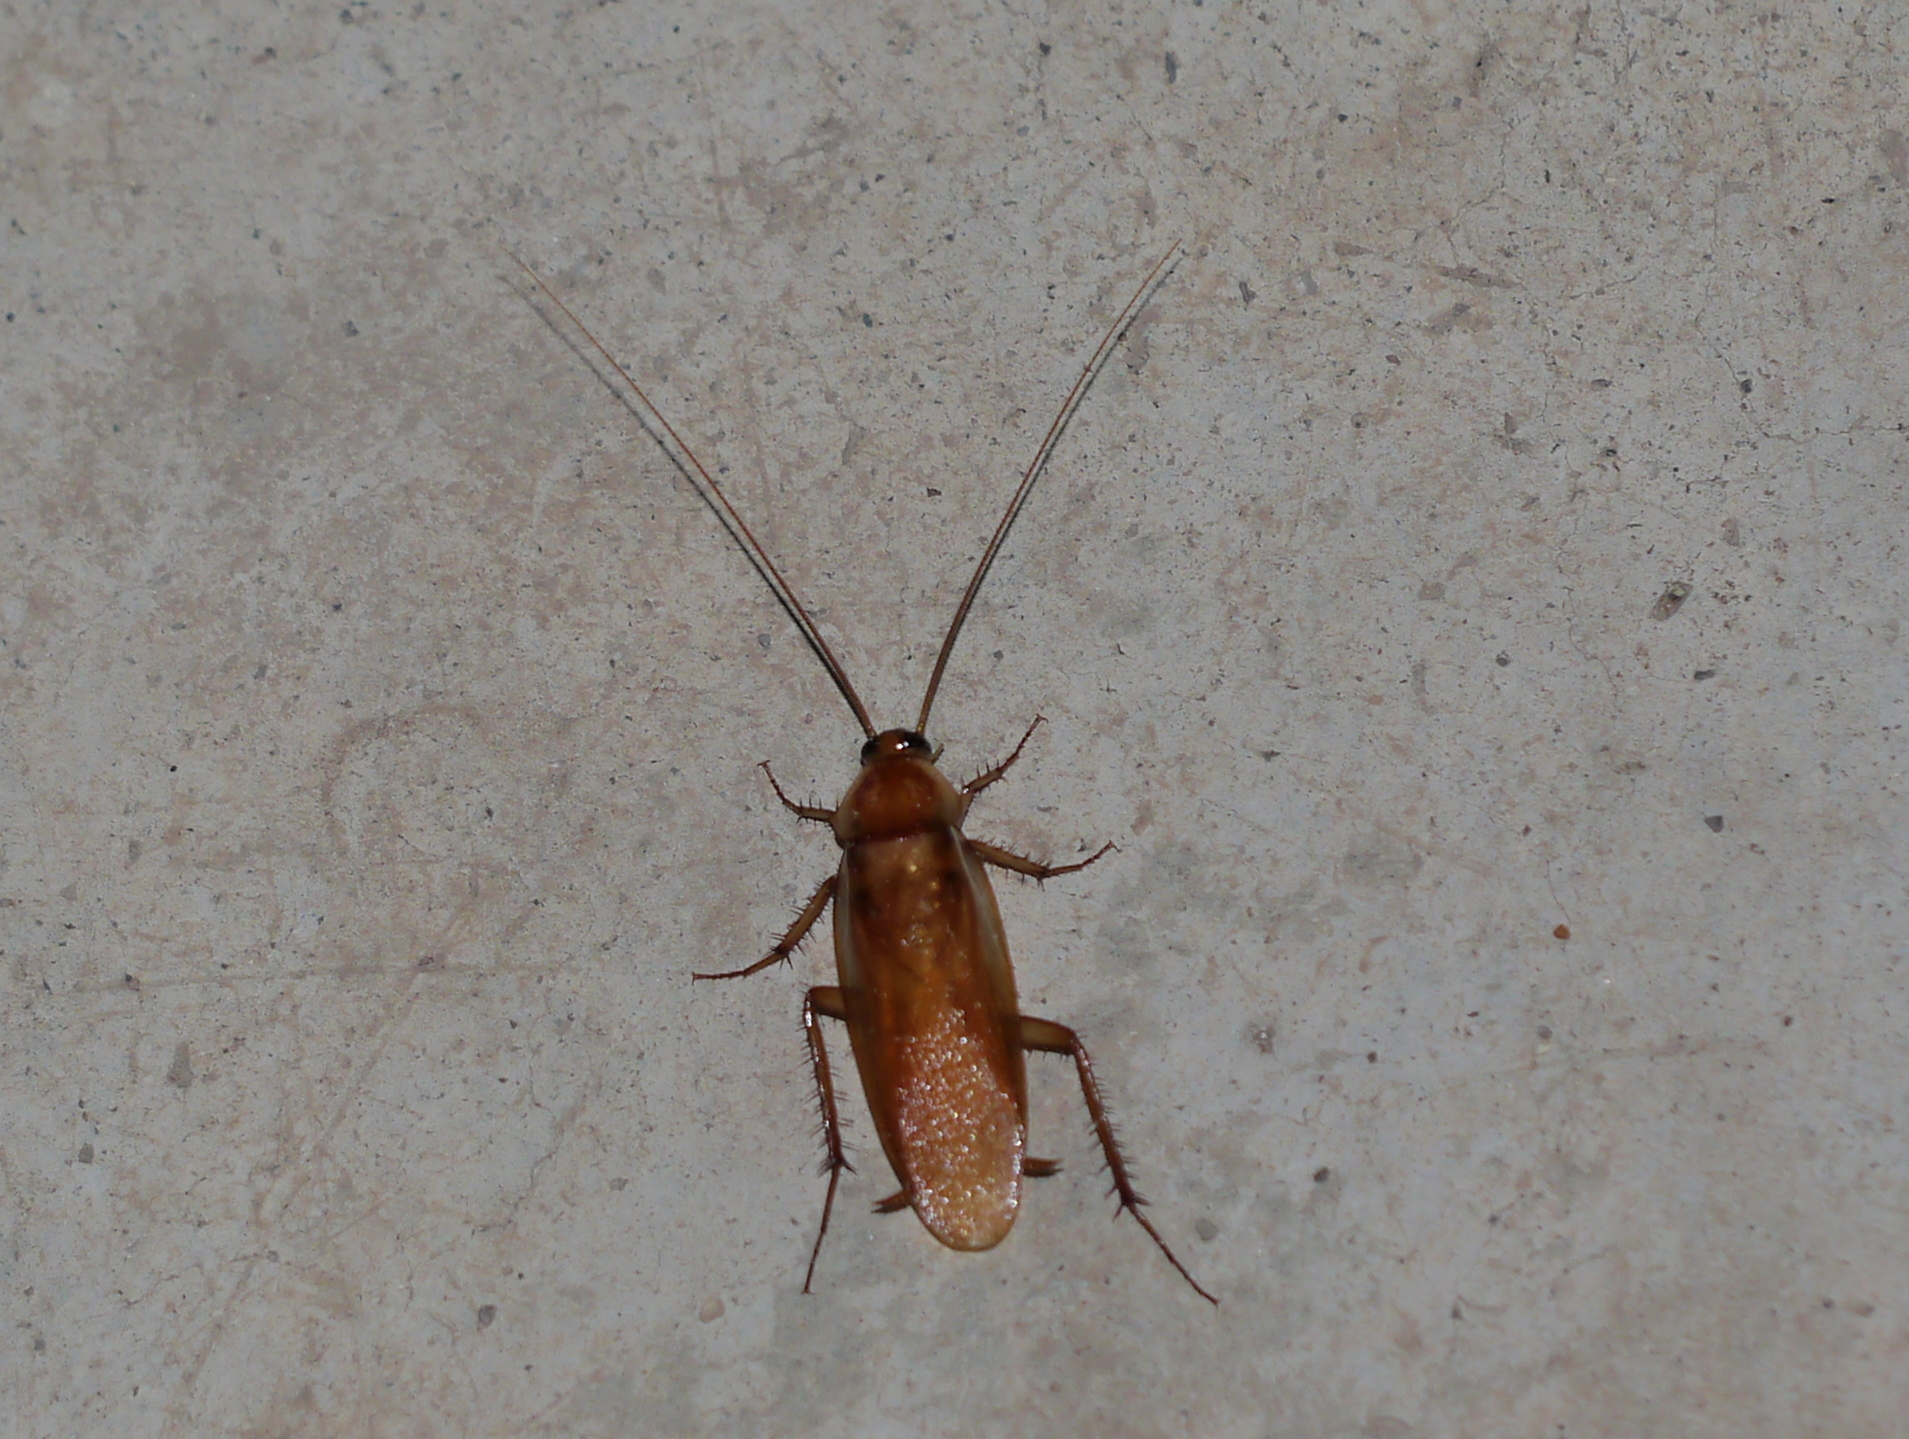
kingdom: Animalia
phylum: Arthropoda
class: Insecta
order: Blattodea
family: Blattidae
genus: Periplaneta
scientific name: Periplaneta lateralis
